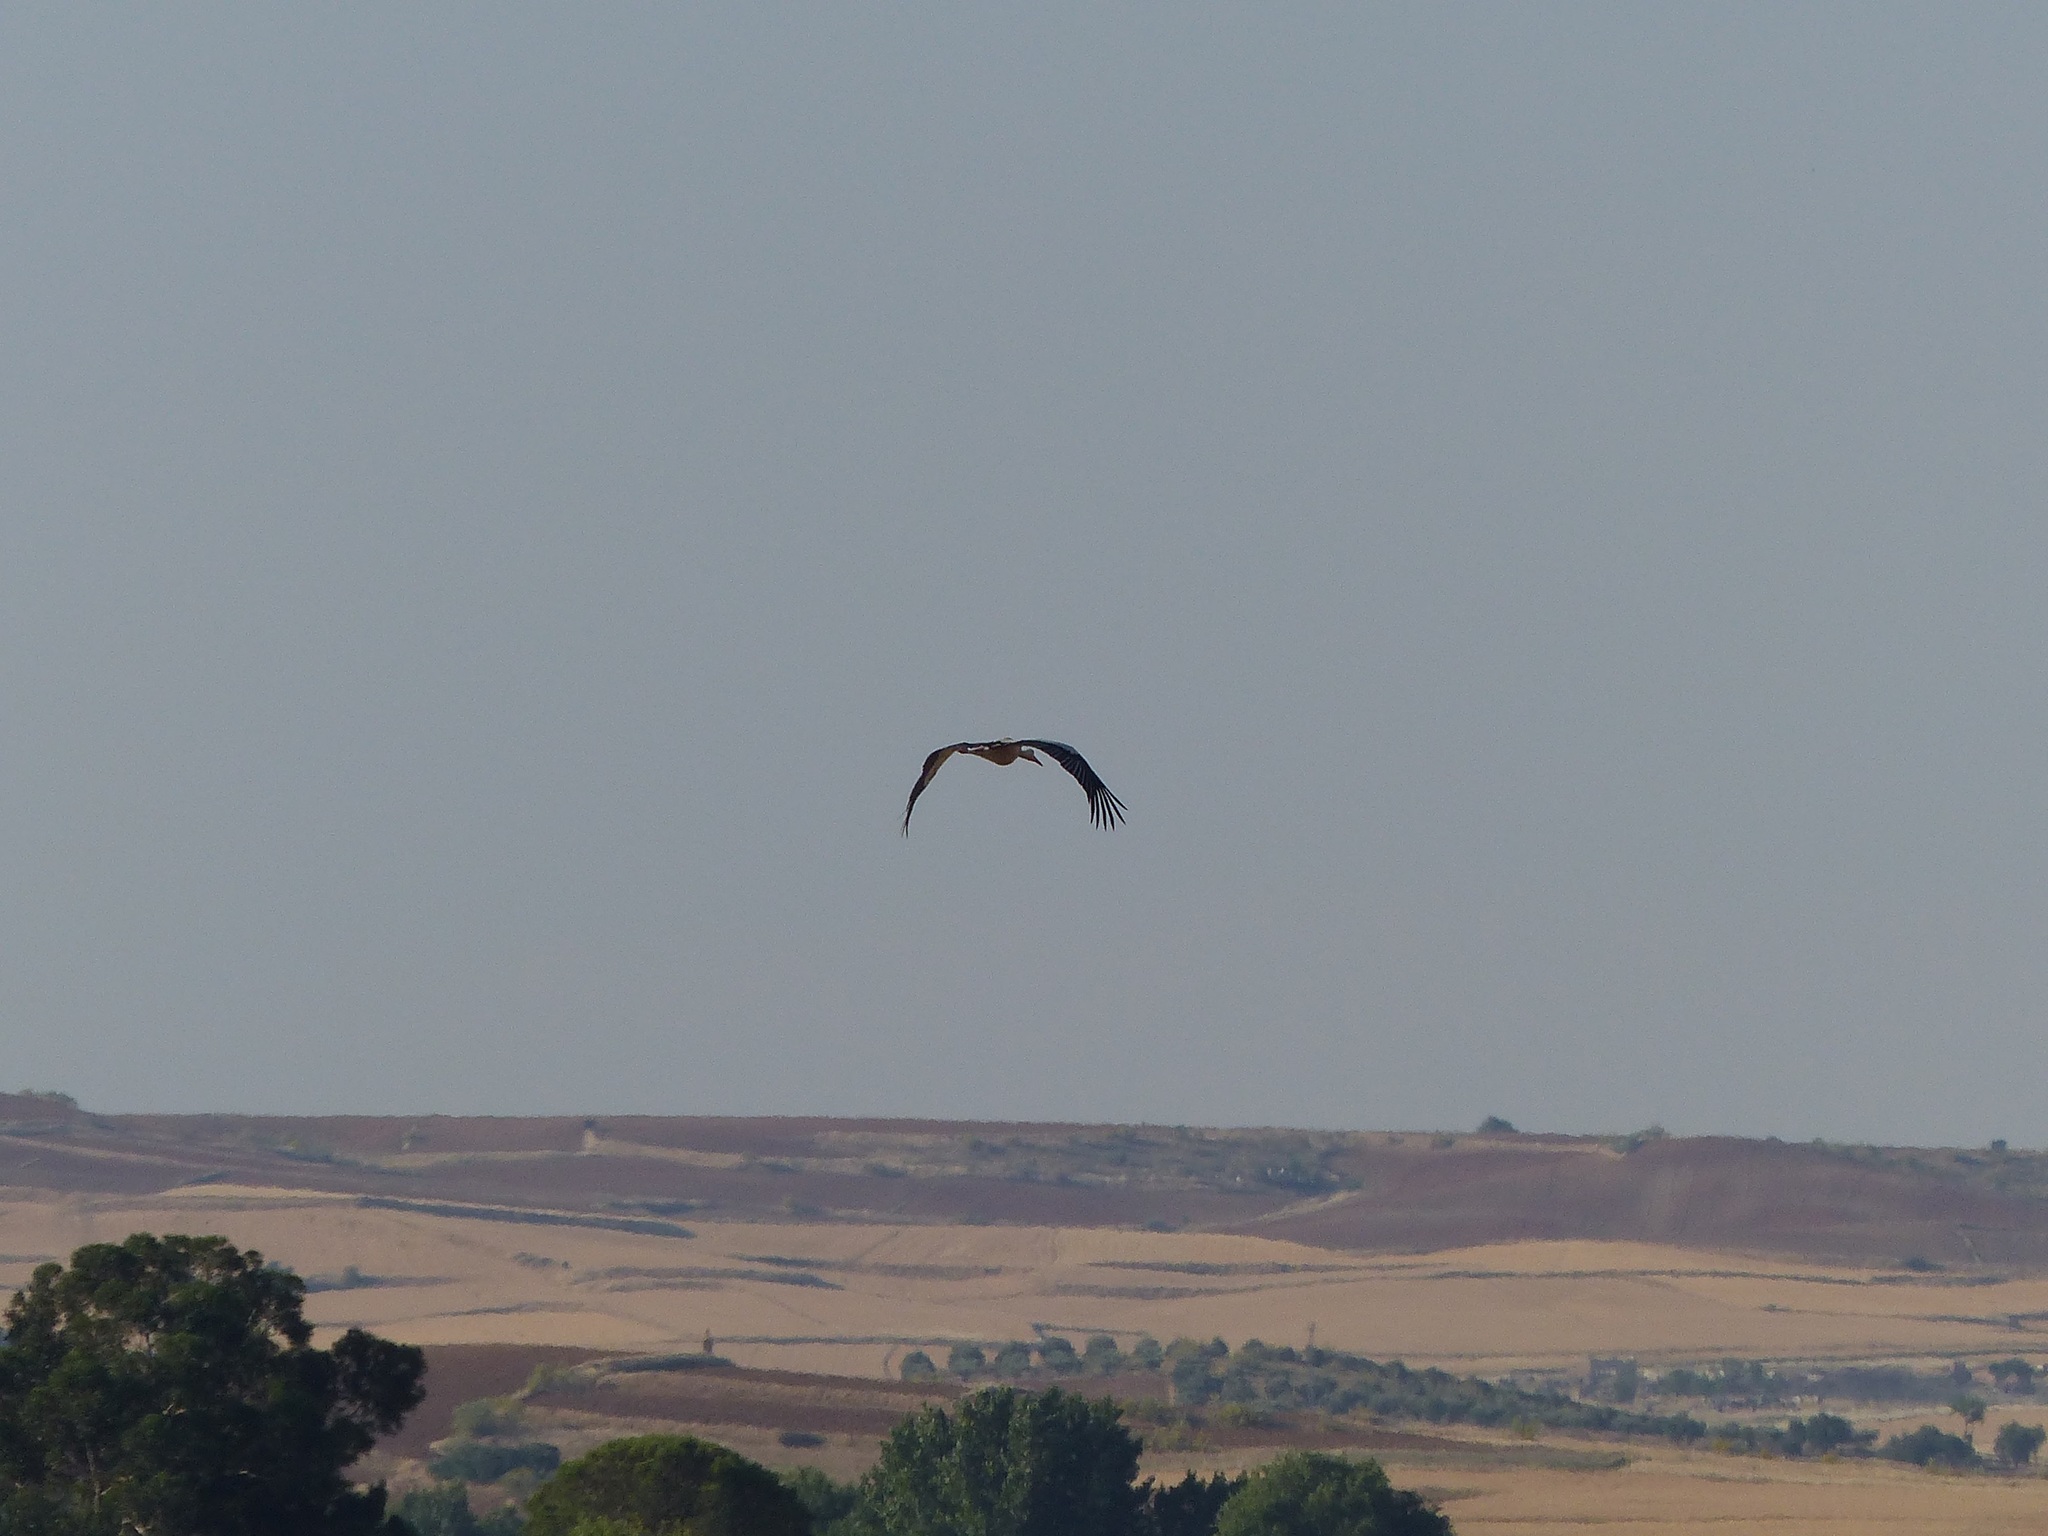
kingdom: Animalia
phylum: Chordata
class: Aves
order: Ciconiiformes
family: Ciconiidae
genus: Ciconia
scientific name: Ciconia ciconia
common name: White stork
